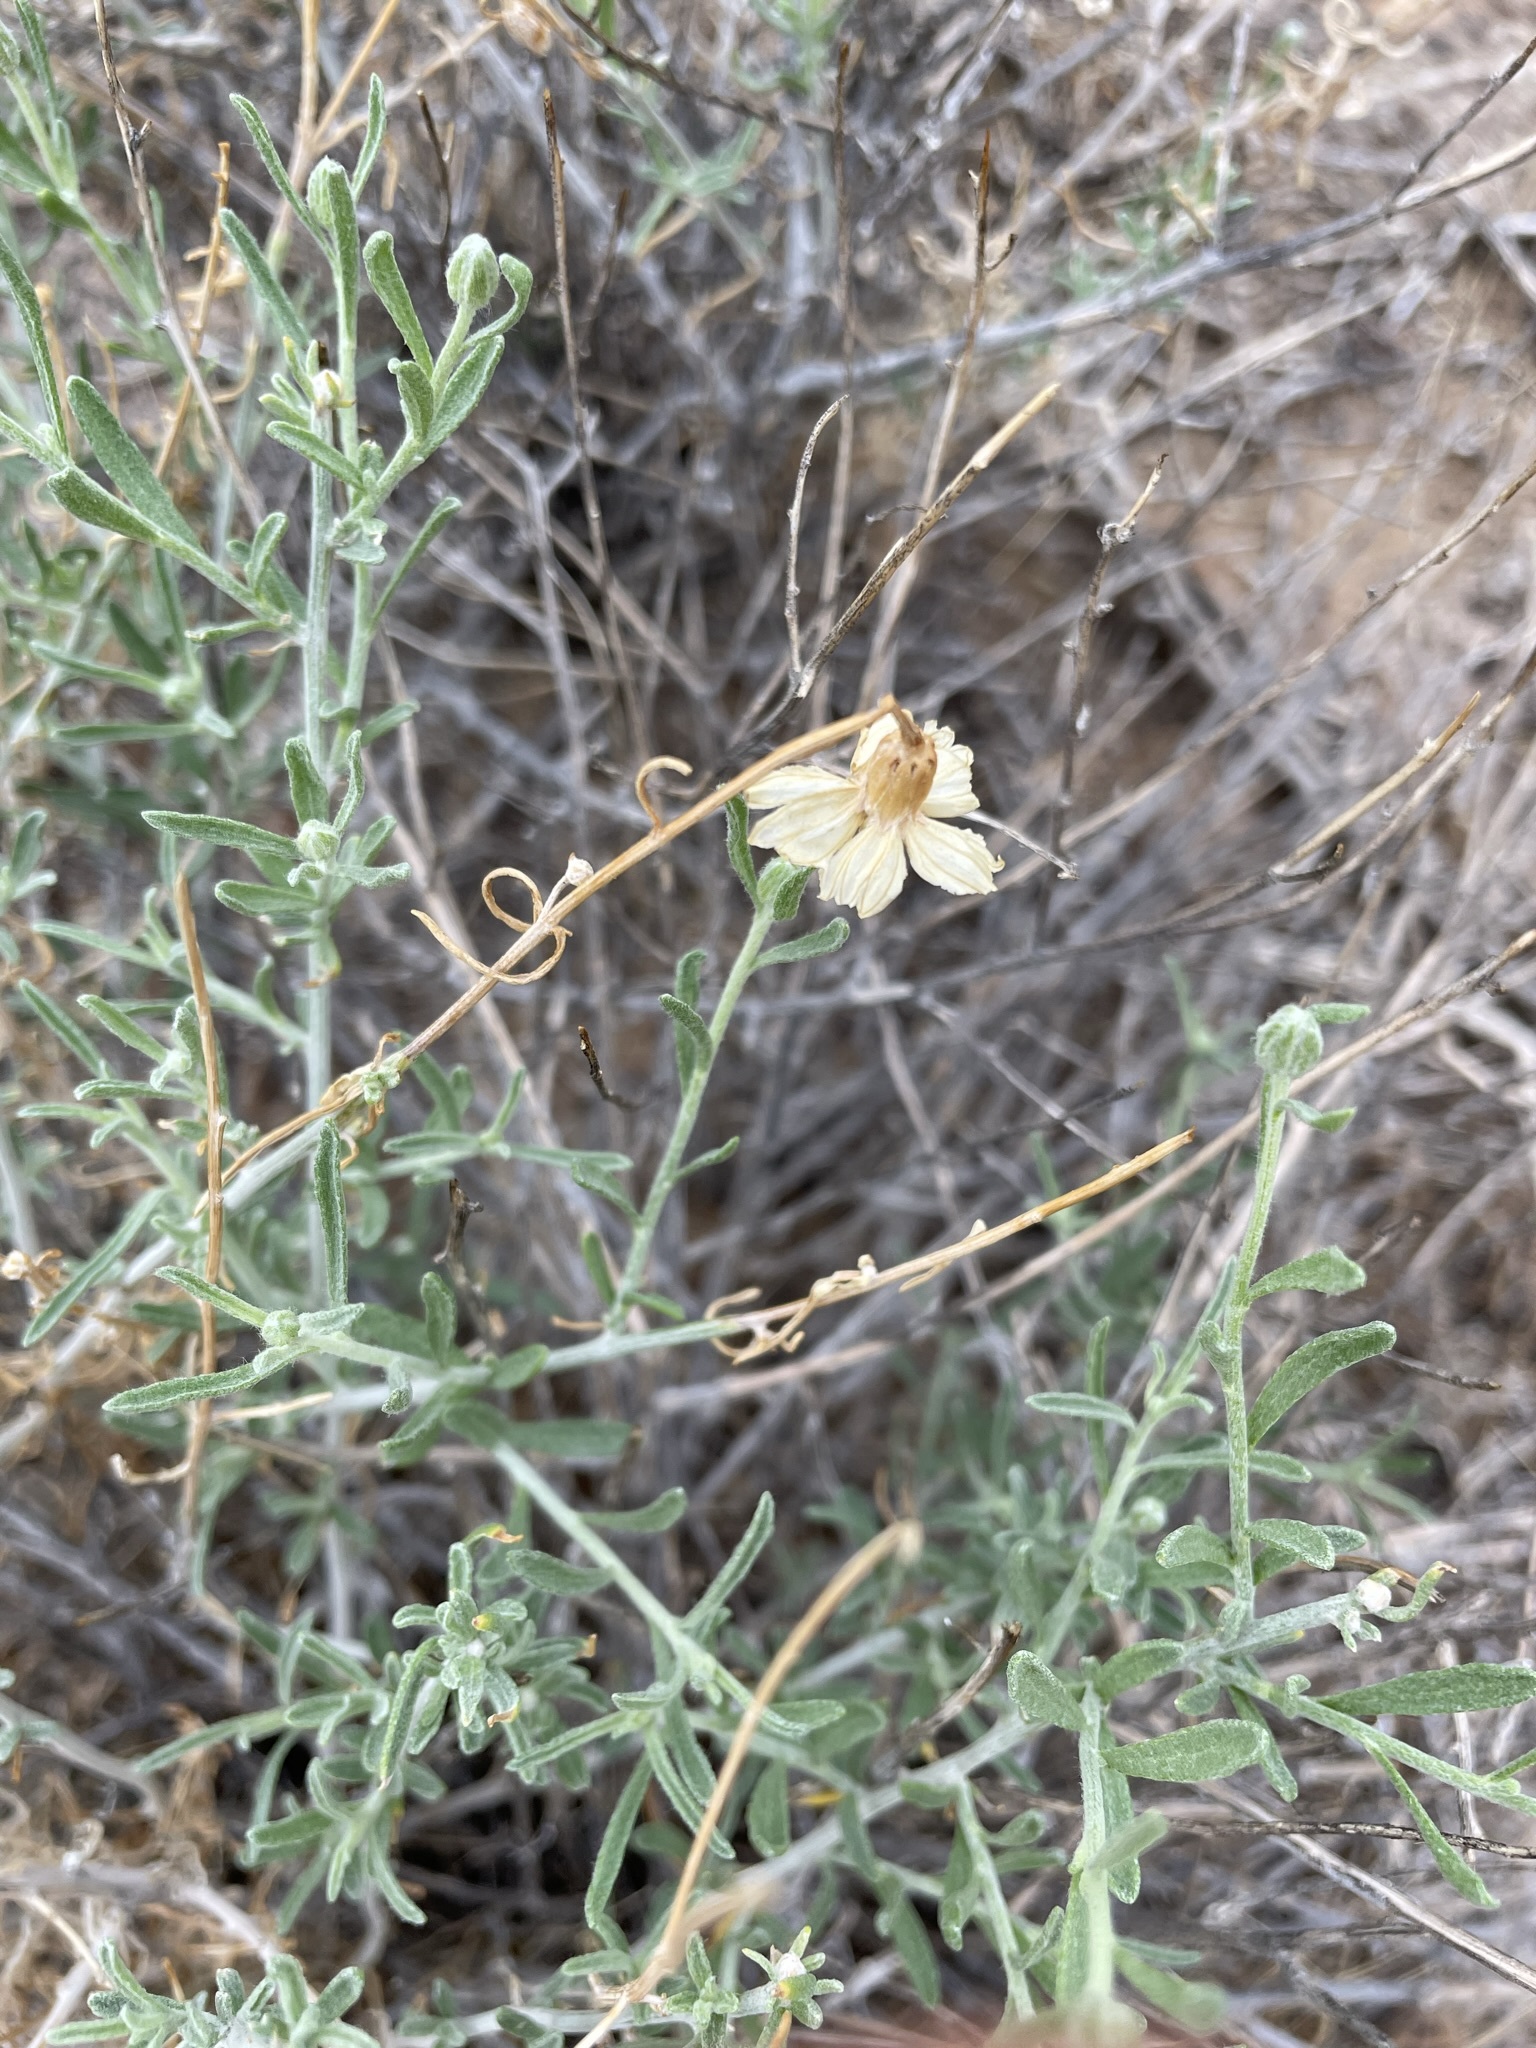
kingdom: Plantae
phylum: Tracheophyta
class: Magnoliopsida
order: Asterales
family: Asteraceae
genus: Psilostrophe
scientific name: Psilostrophe cooperi
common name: White-stem paper-flower
